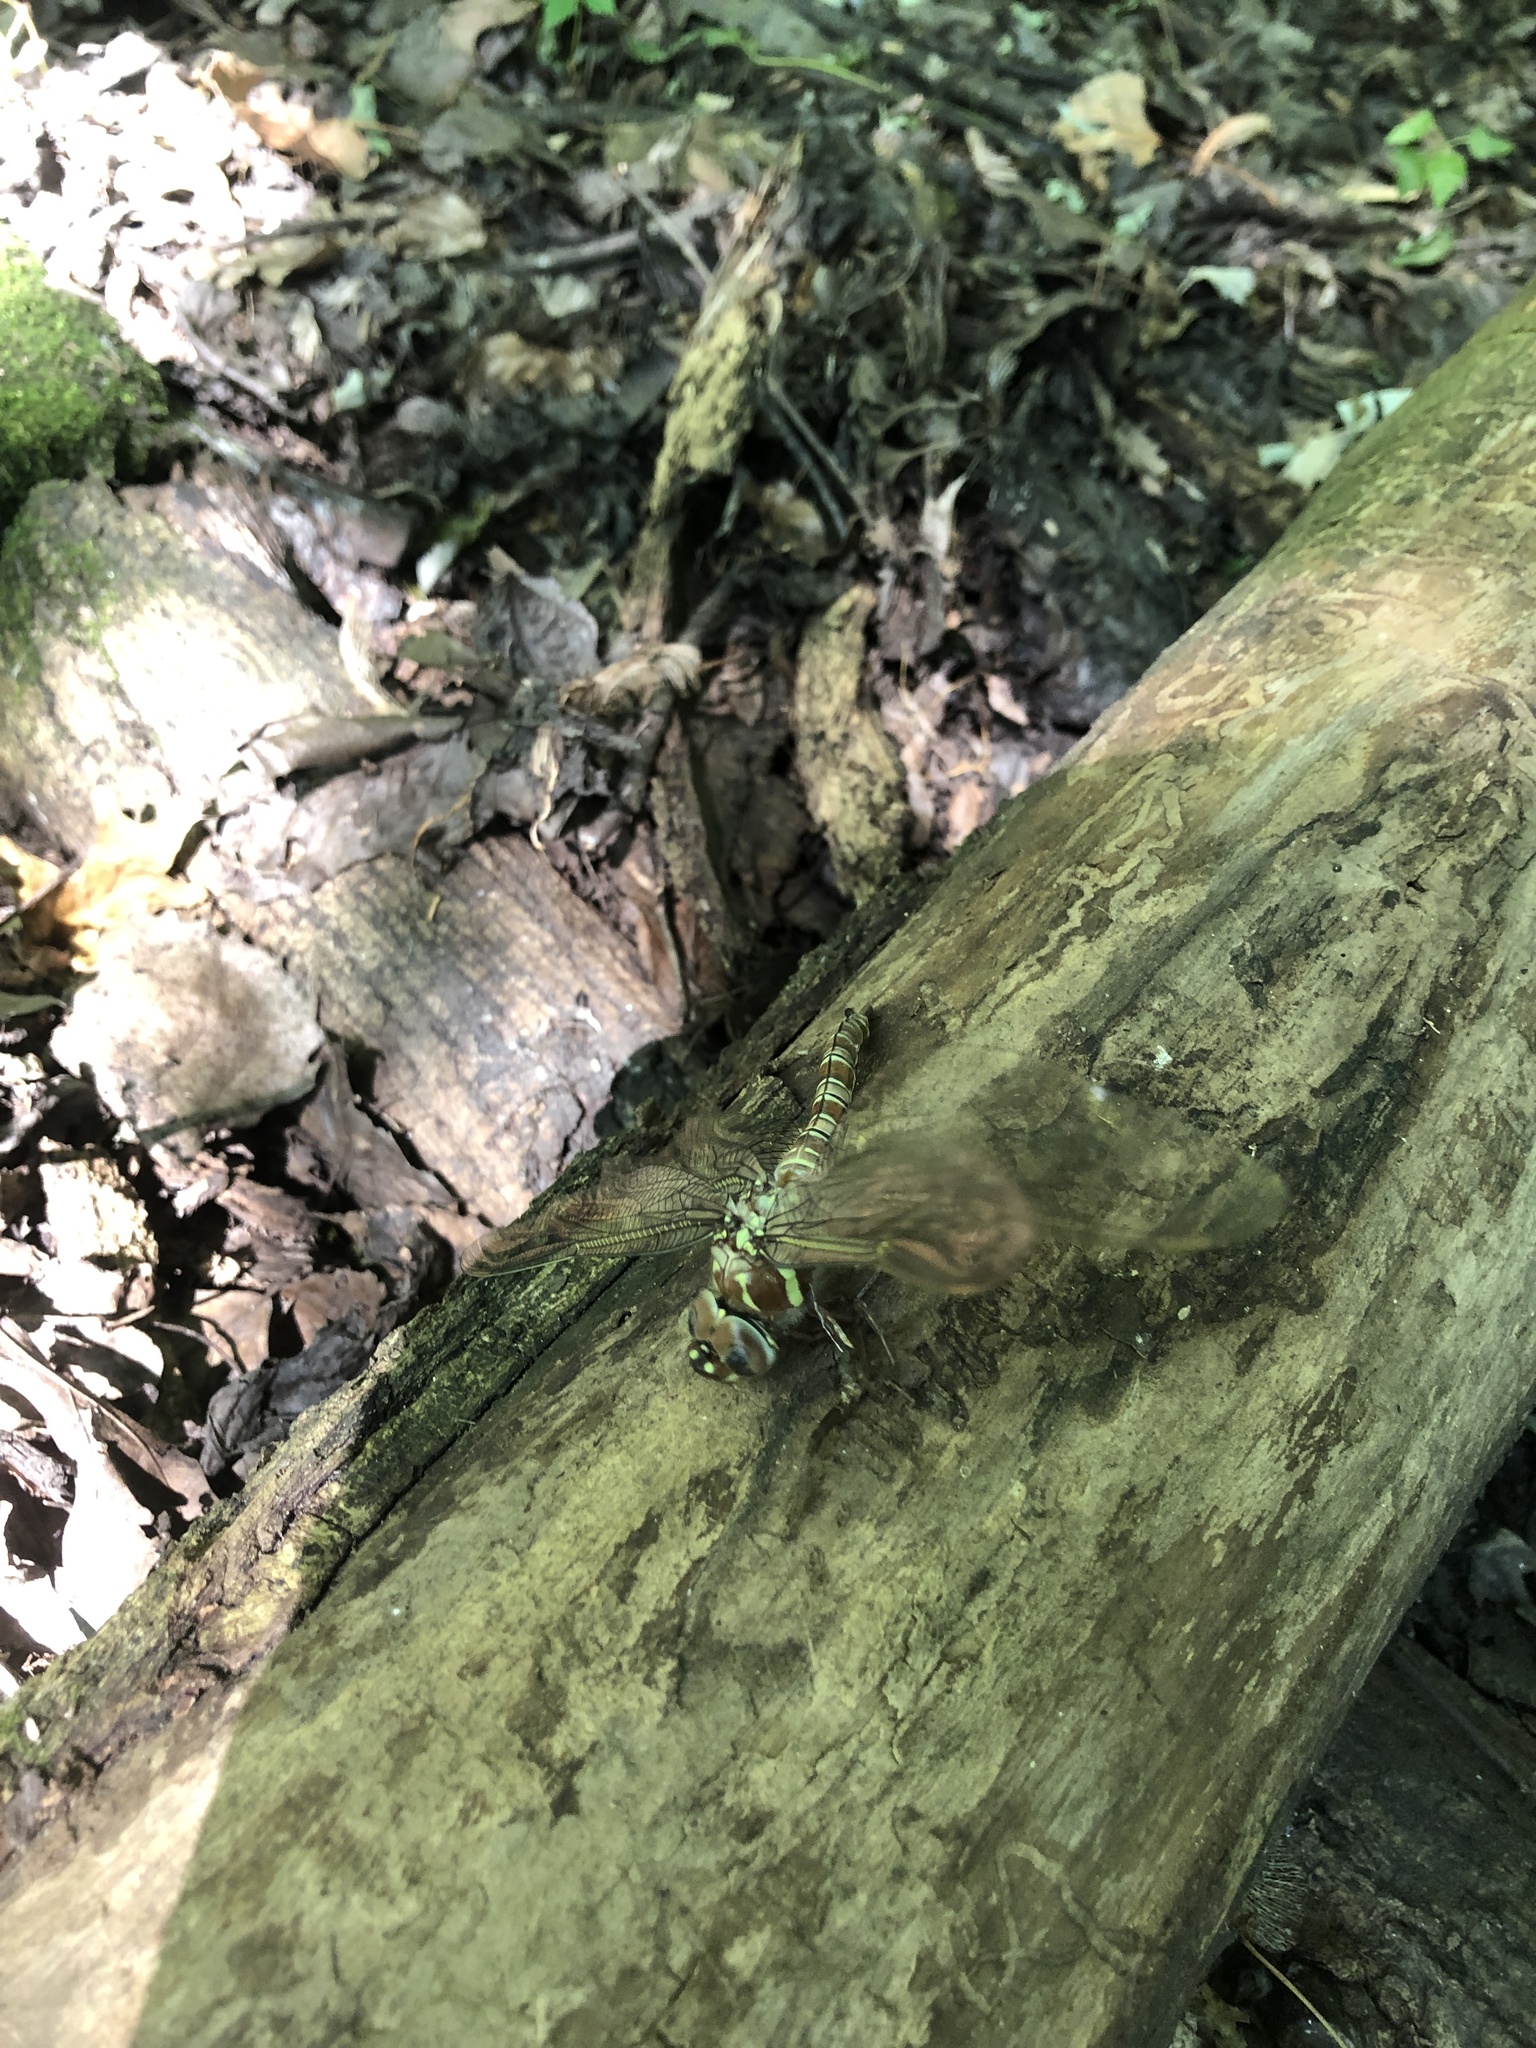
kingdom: Animalia
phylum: Arthropoda
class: Insecta
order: Odonata
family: Aeshnidae
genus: Epiaeschna
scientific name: Epiaeschna heros
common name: Swamp darner
